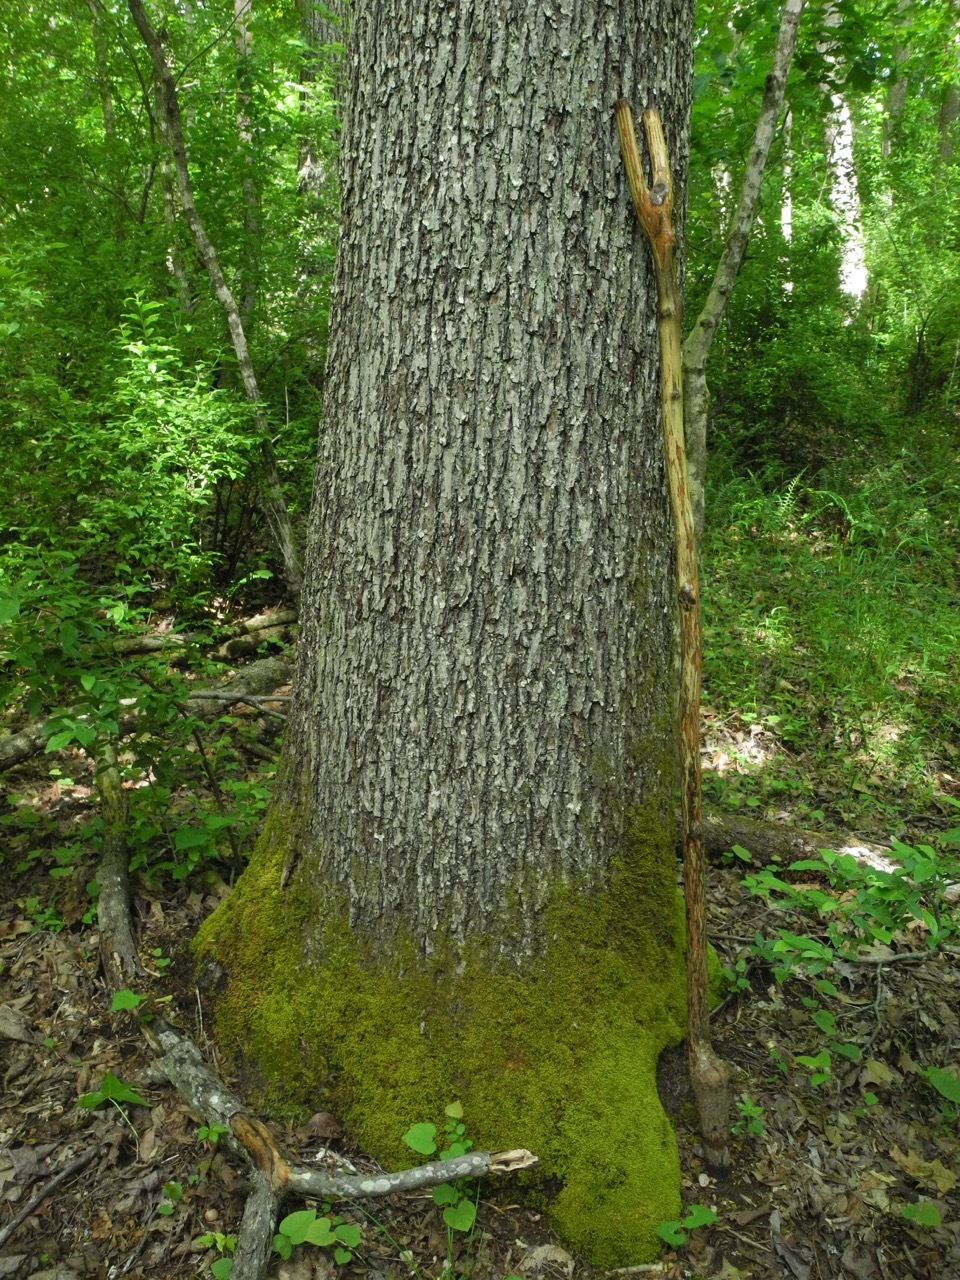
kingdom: Plantae
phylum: Tracheophyta
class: Magnoliopsida
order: Fagales
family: Juglandaceae
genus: Carya
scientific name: Carya alba
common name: Mockernut hickory
